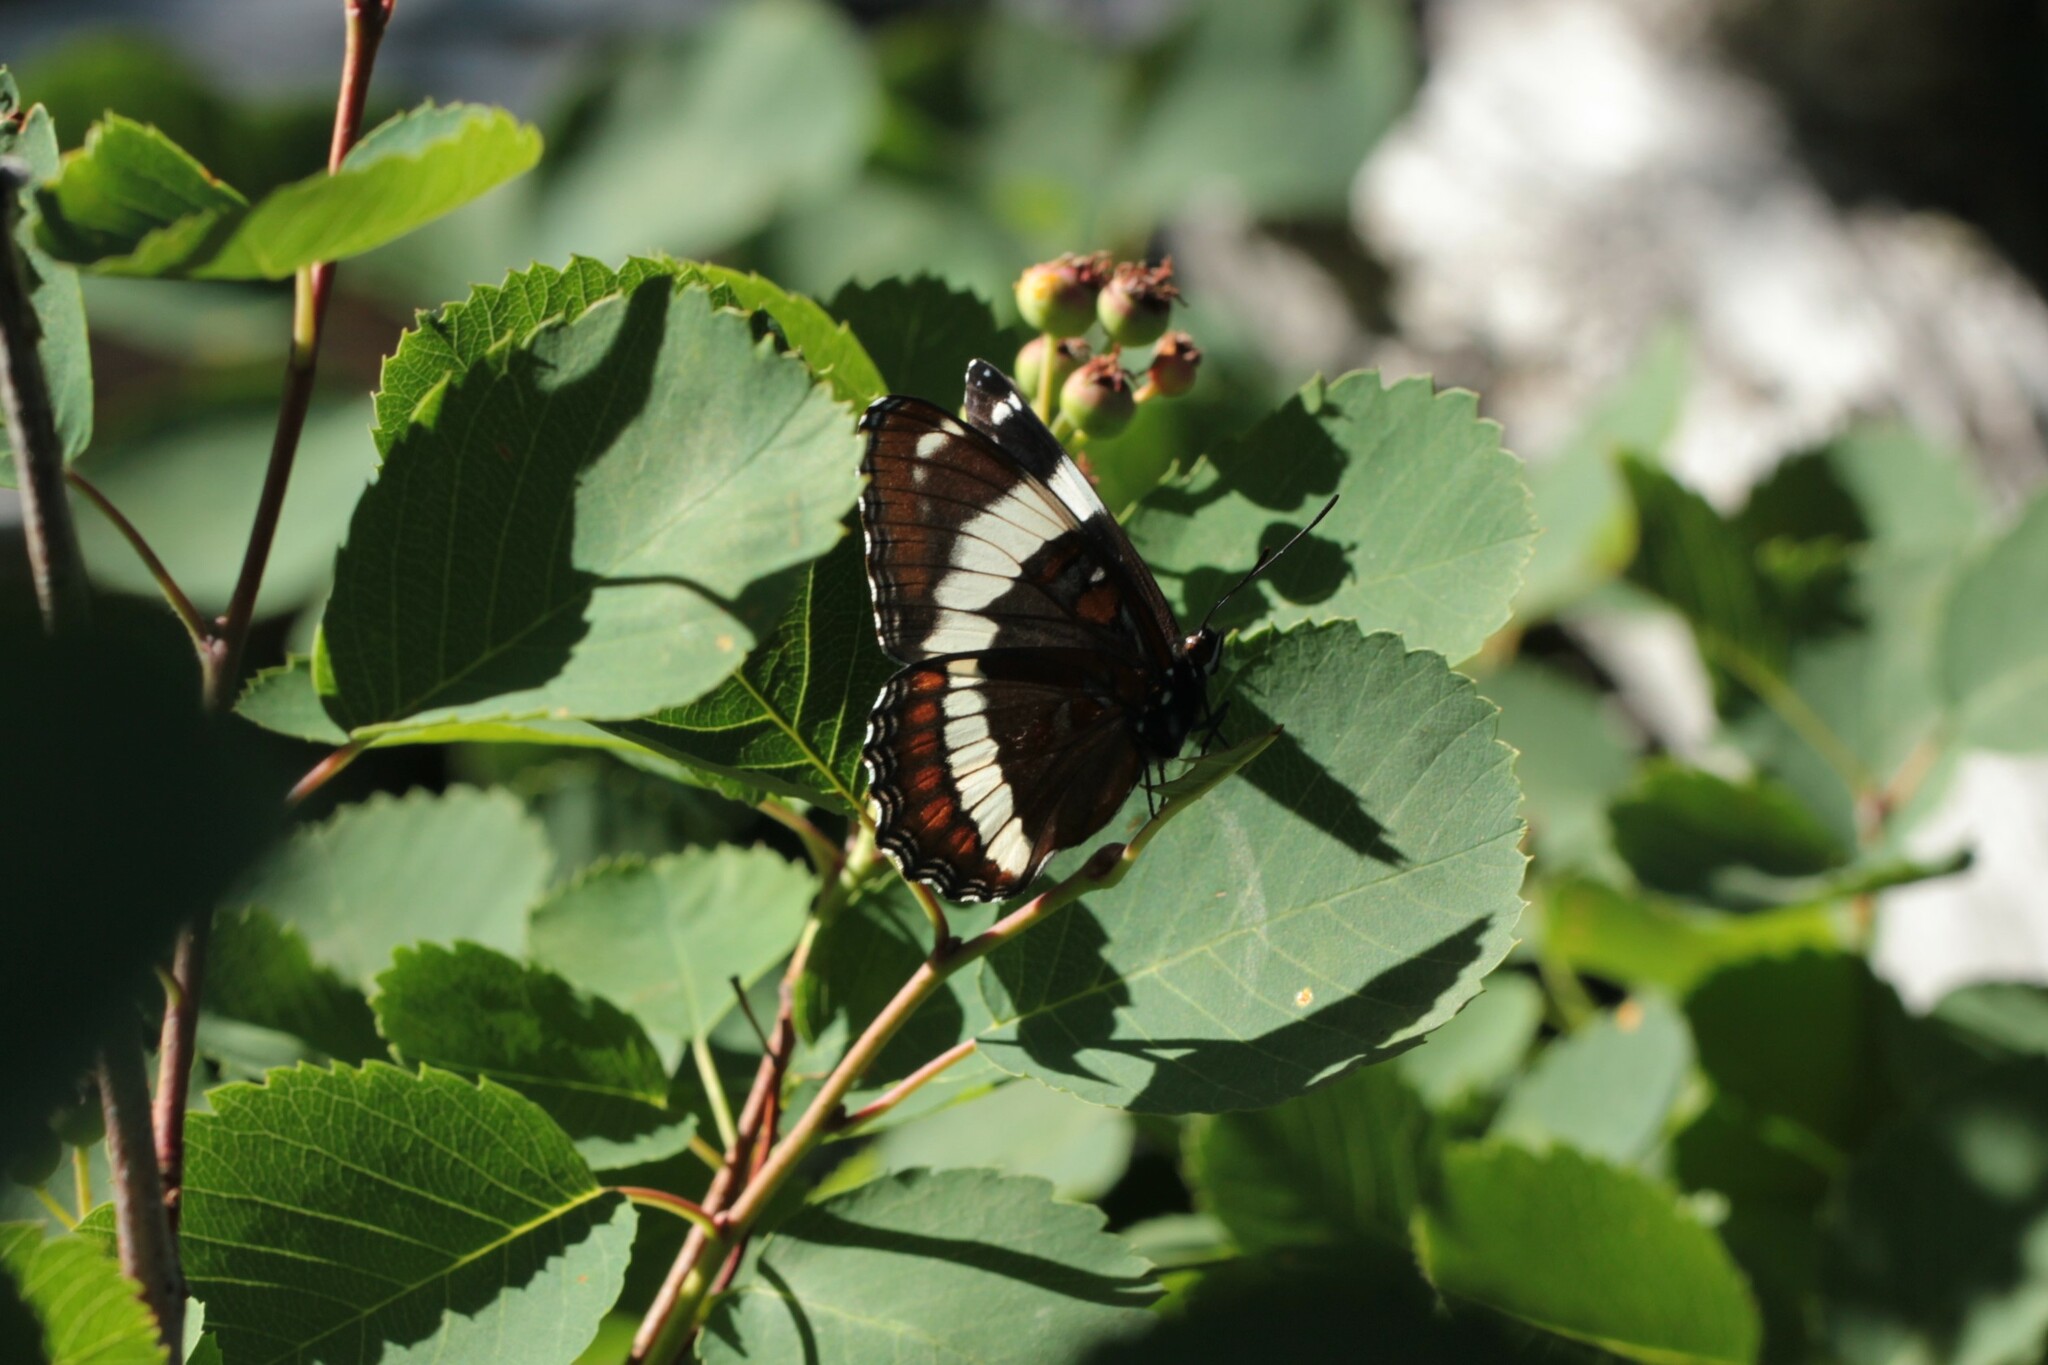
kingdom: Animalia
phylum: Arthropoda
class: Insecta
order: Lepidoptera
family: Nymphalidae
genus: Limenitis
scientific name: Limenitis arthemis
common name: Red-spotted admiral
